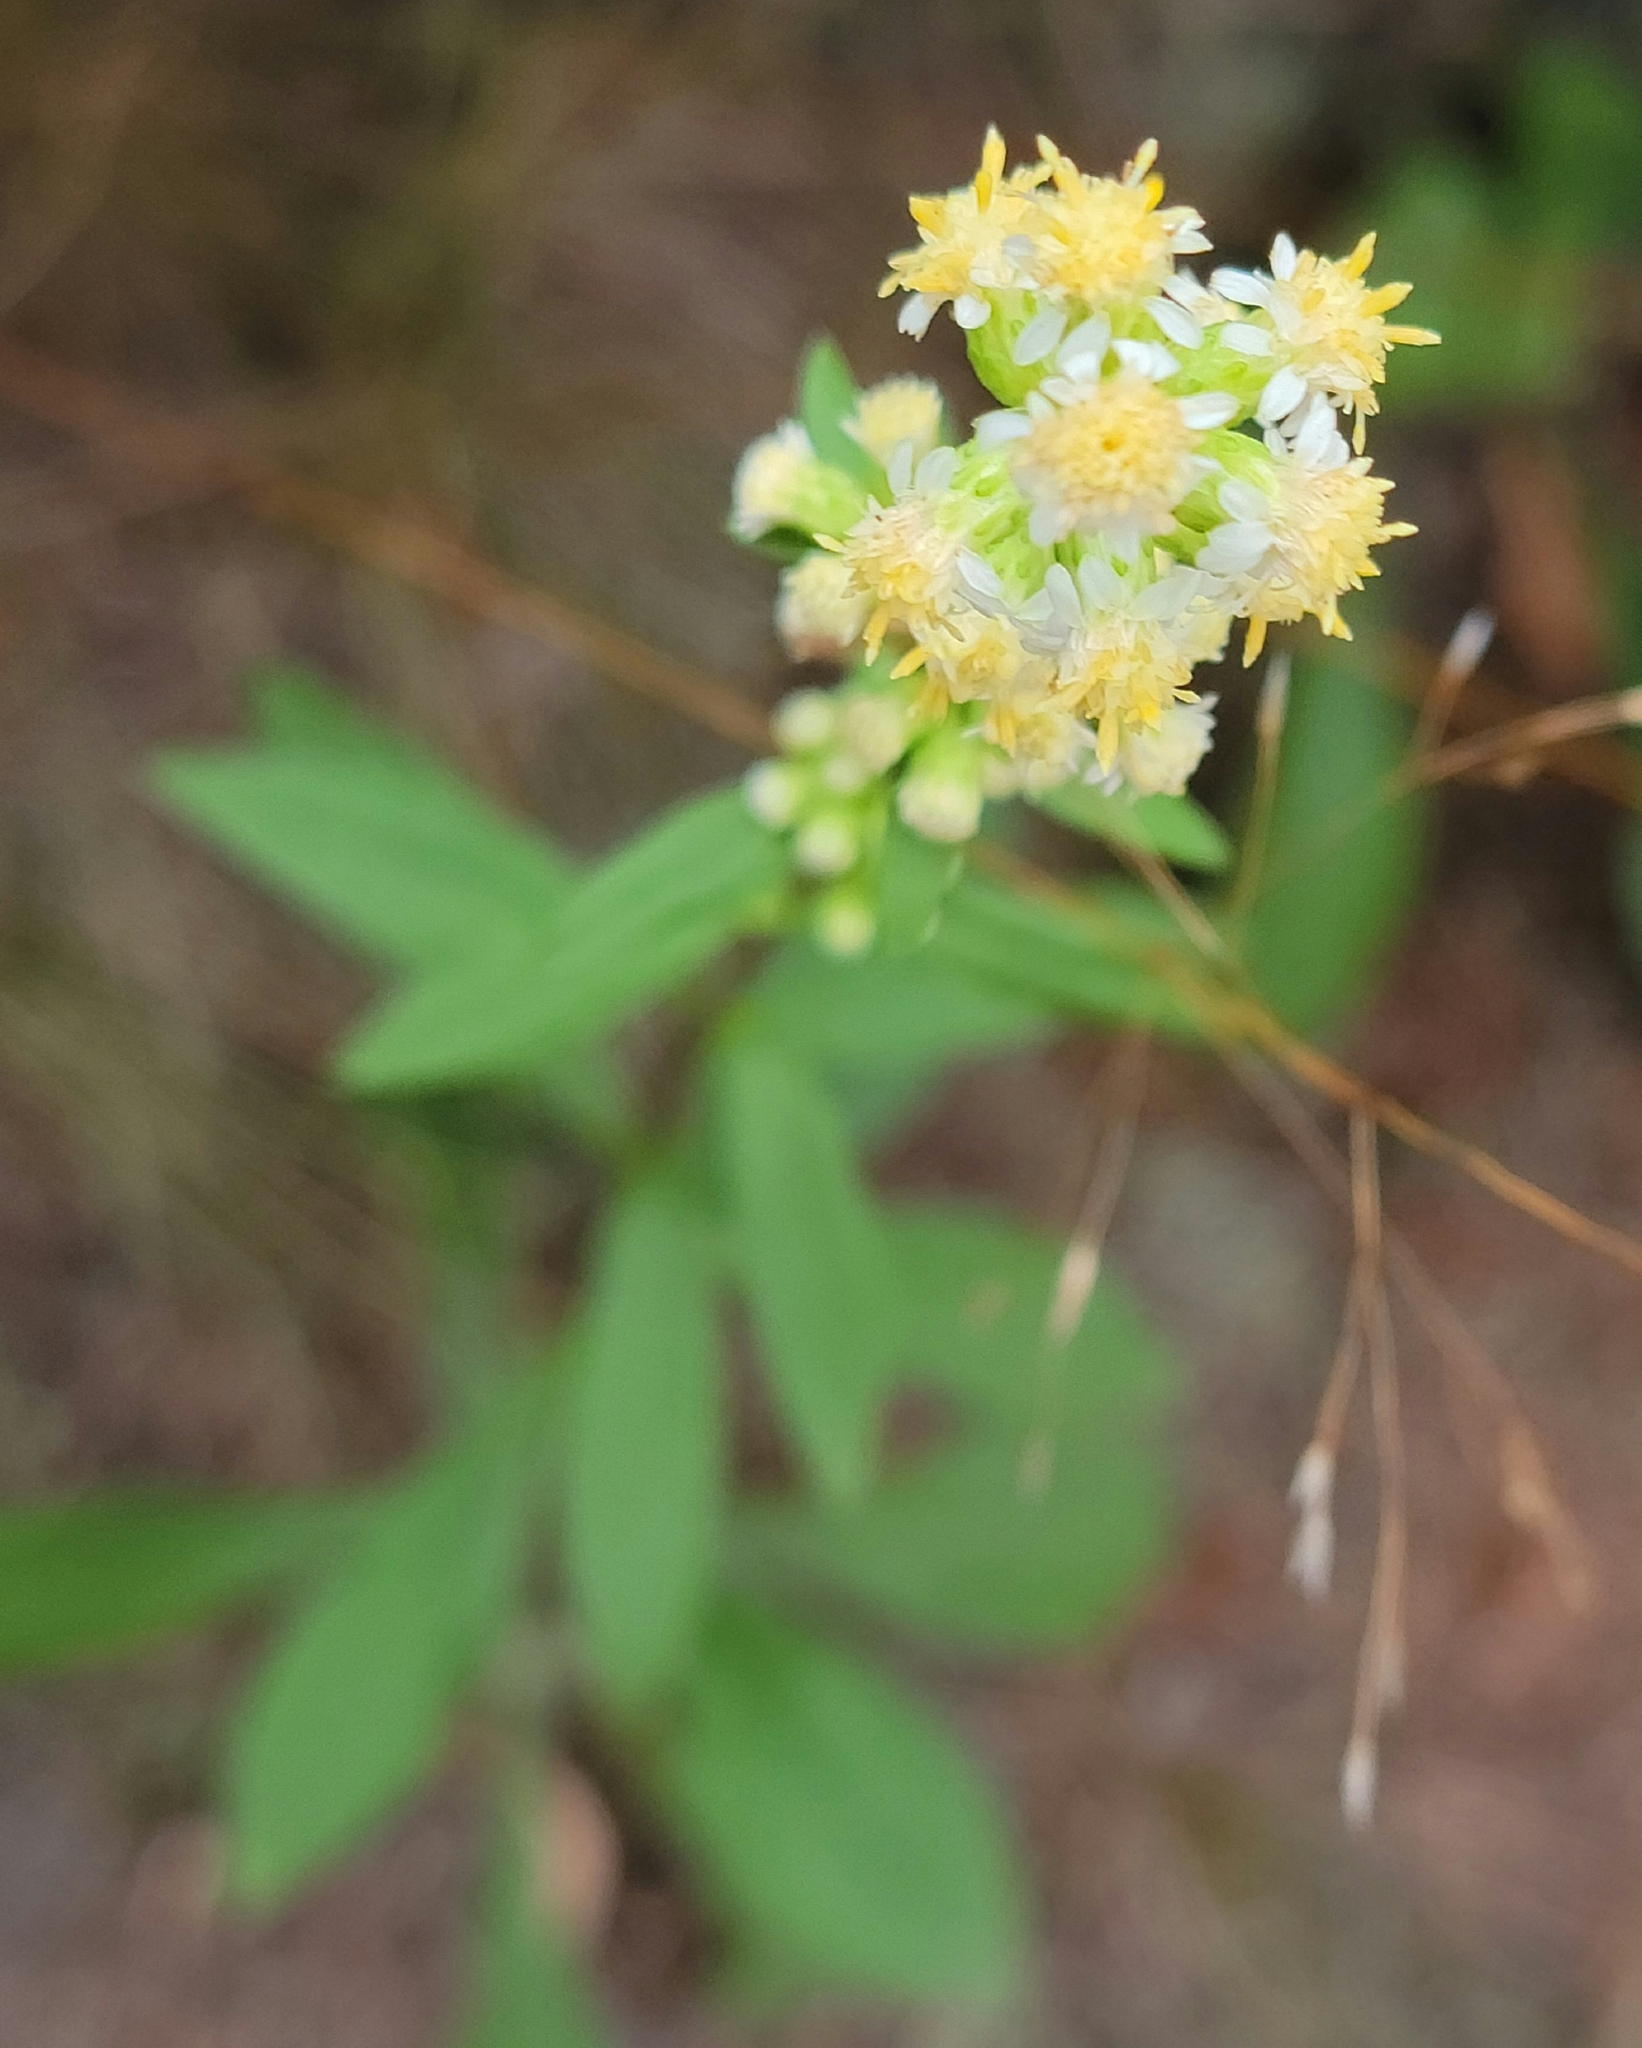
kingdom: Plantae
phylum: Tracheophyta
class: Magnoliopsida
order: Asterales
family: Asteraceae
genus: Solidago
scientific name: Solidago bicolor
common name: Silverrod
